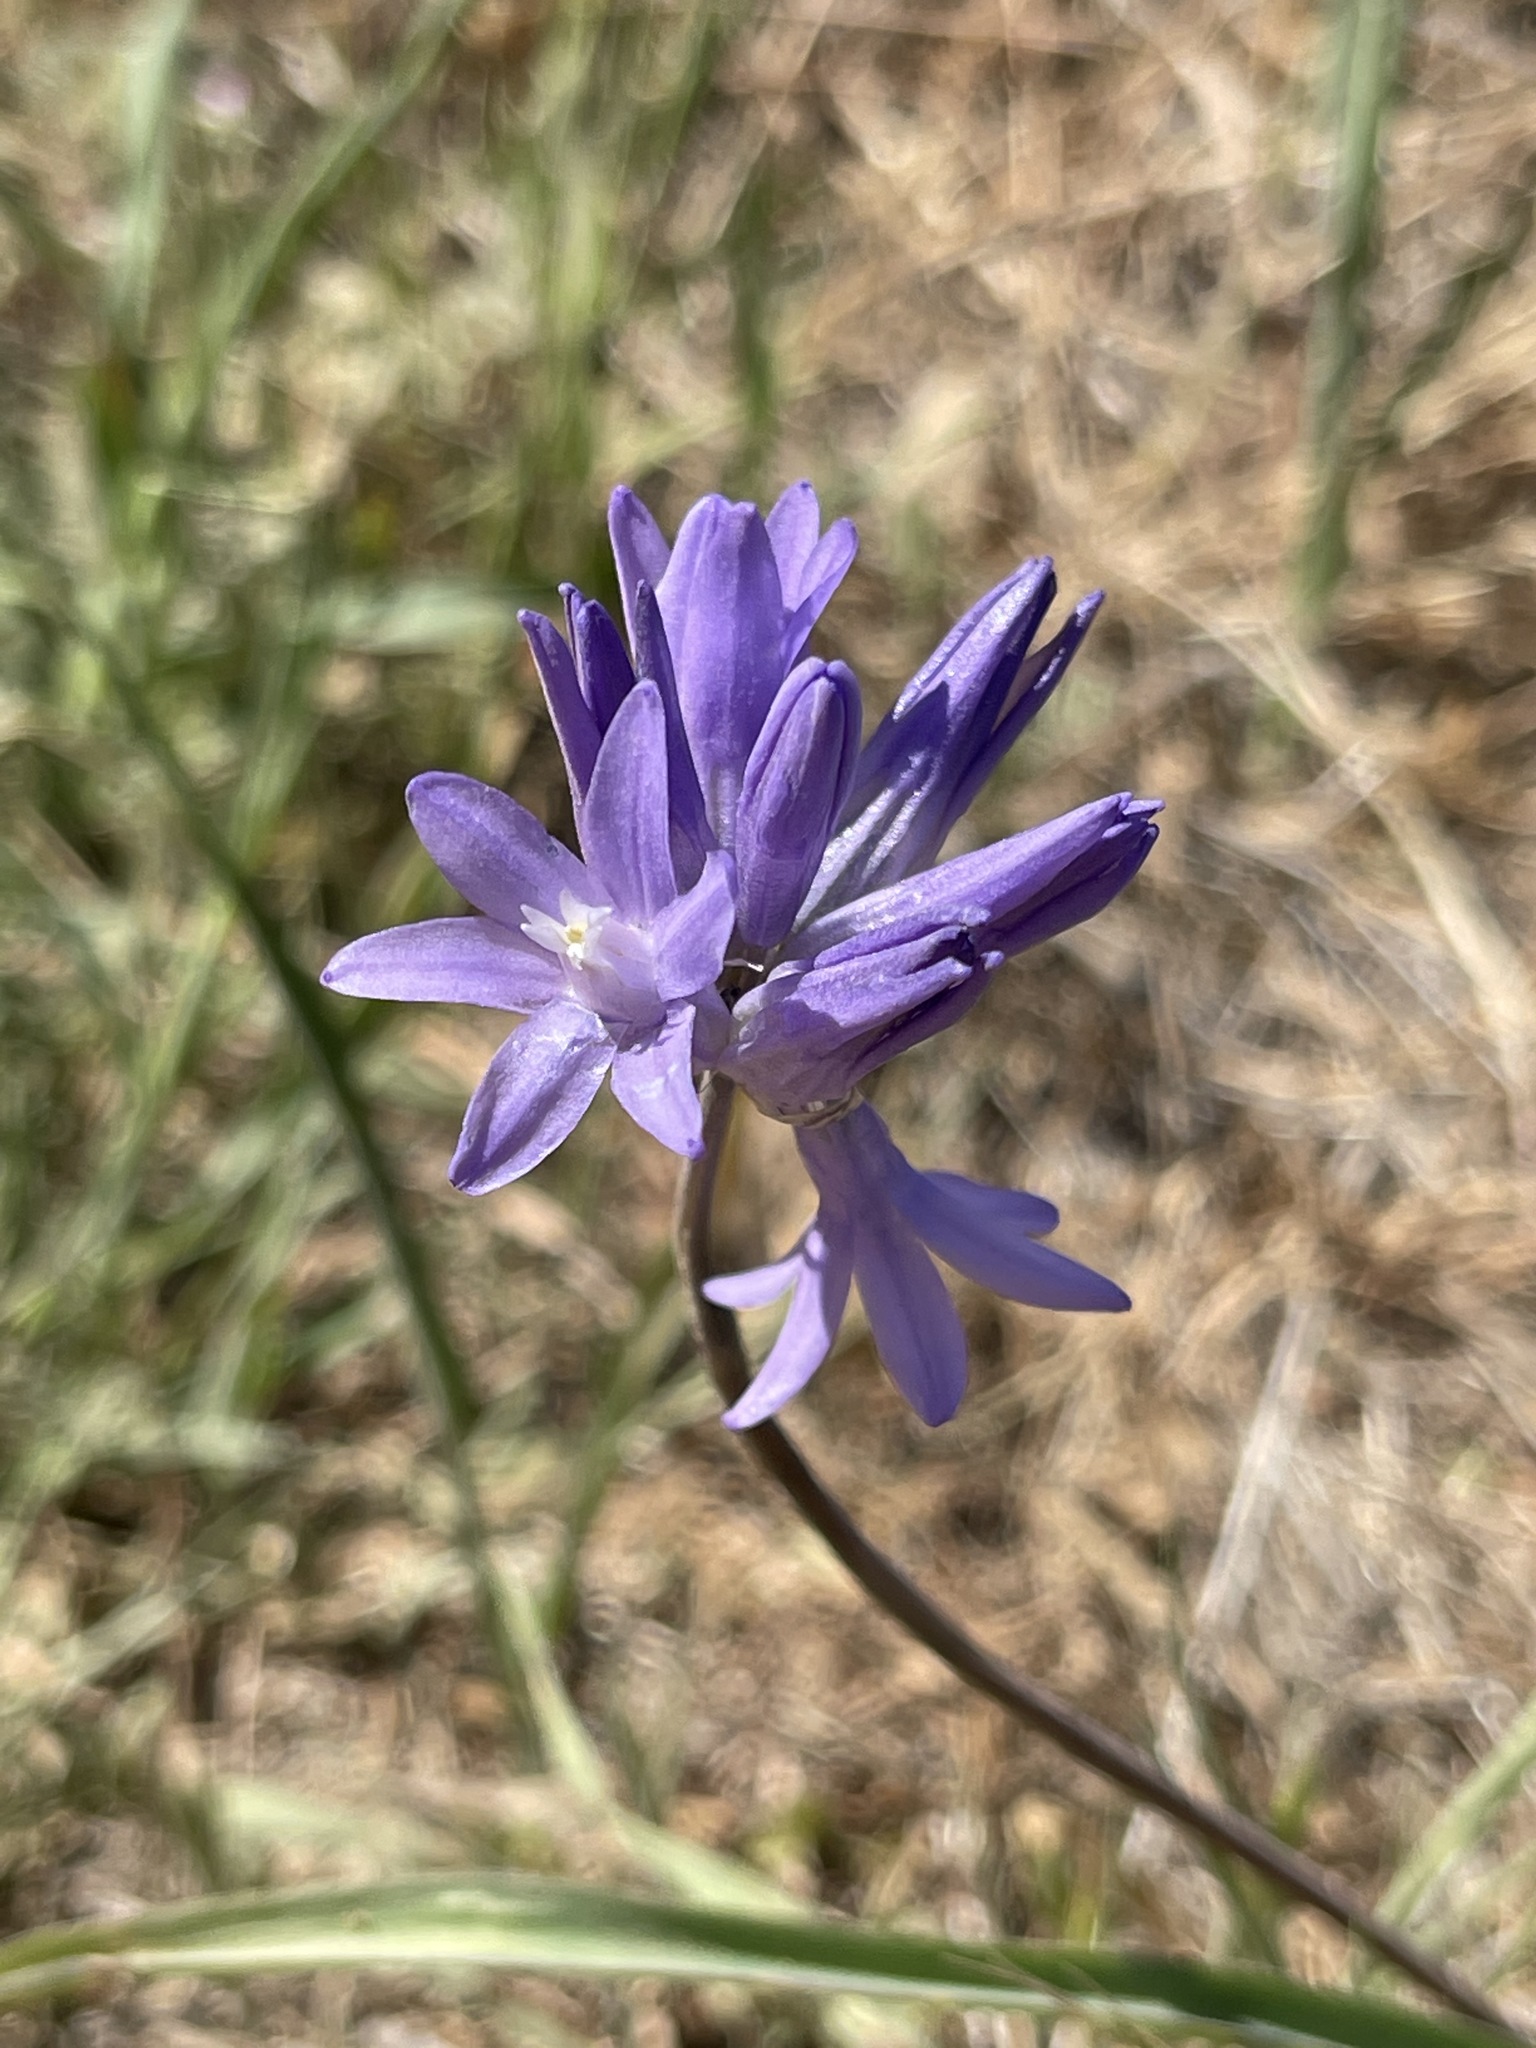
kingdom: Plantae
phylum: Tracheophyta
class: Liliopsida
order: Asparagales
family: Asparagaceae
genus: Dipterostemon
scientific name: Dipterostemon capitatus
